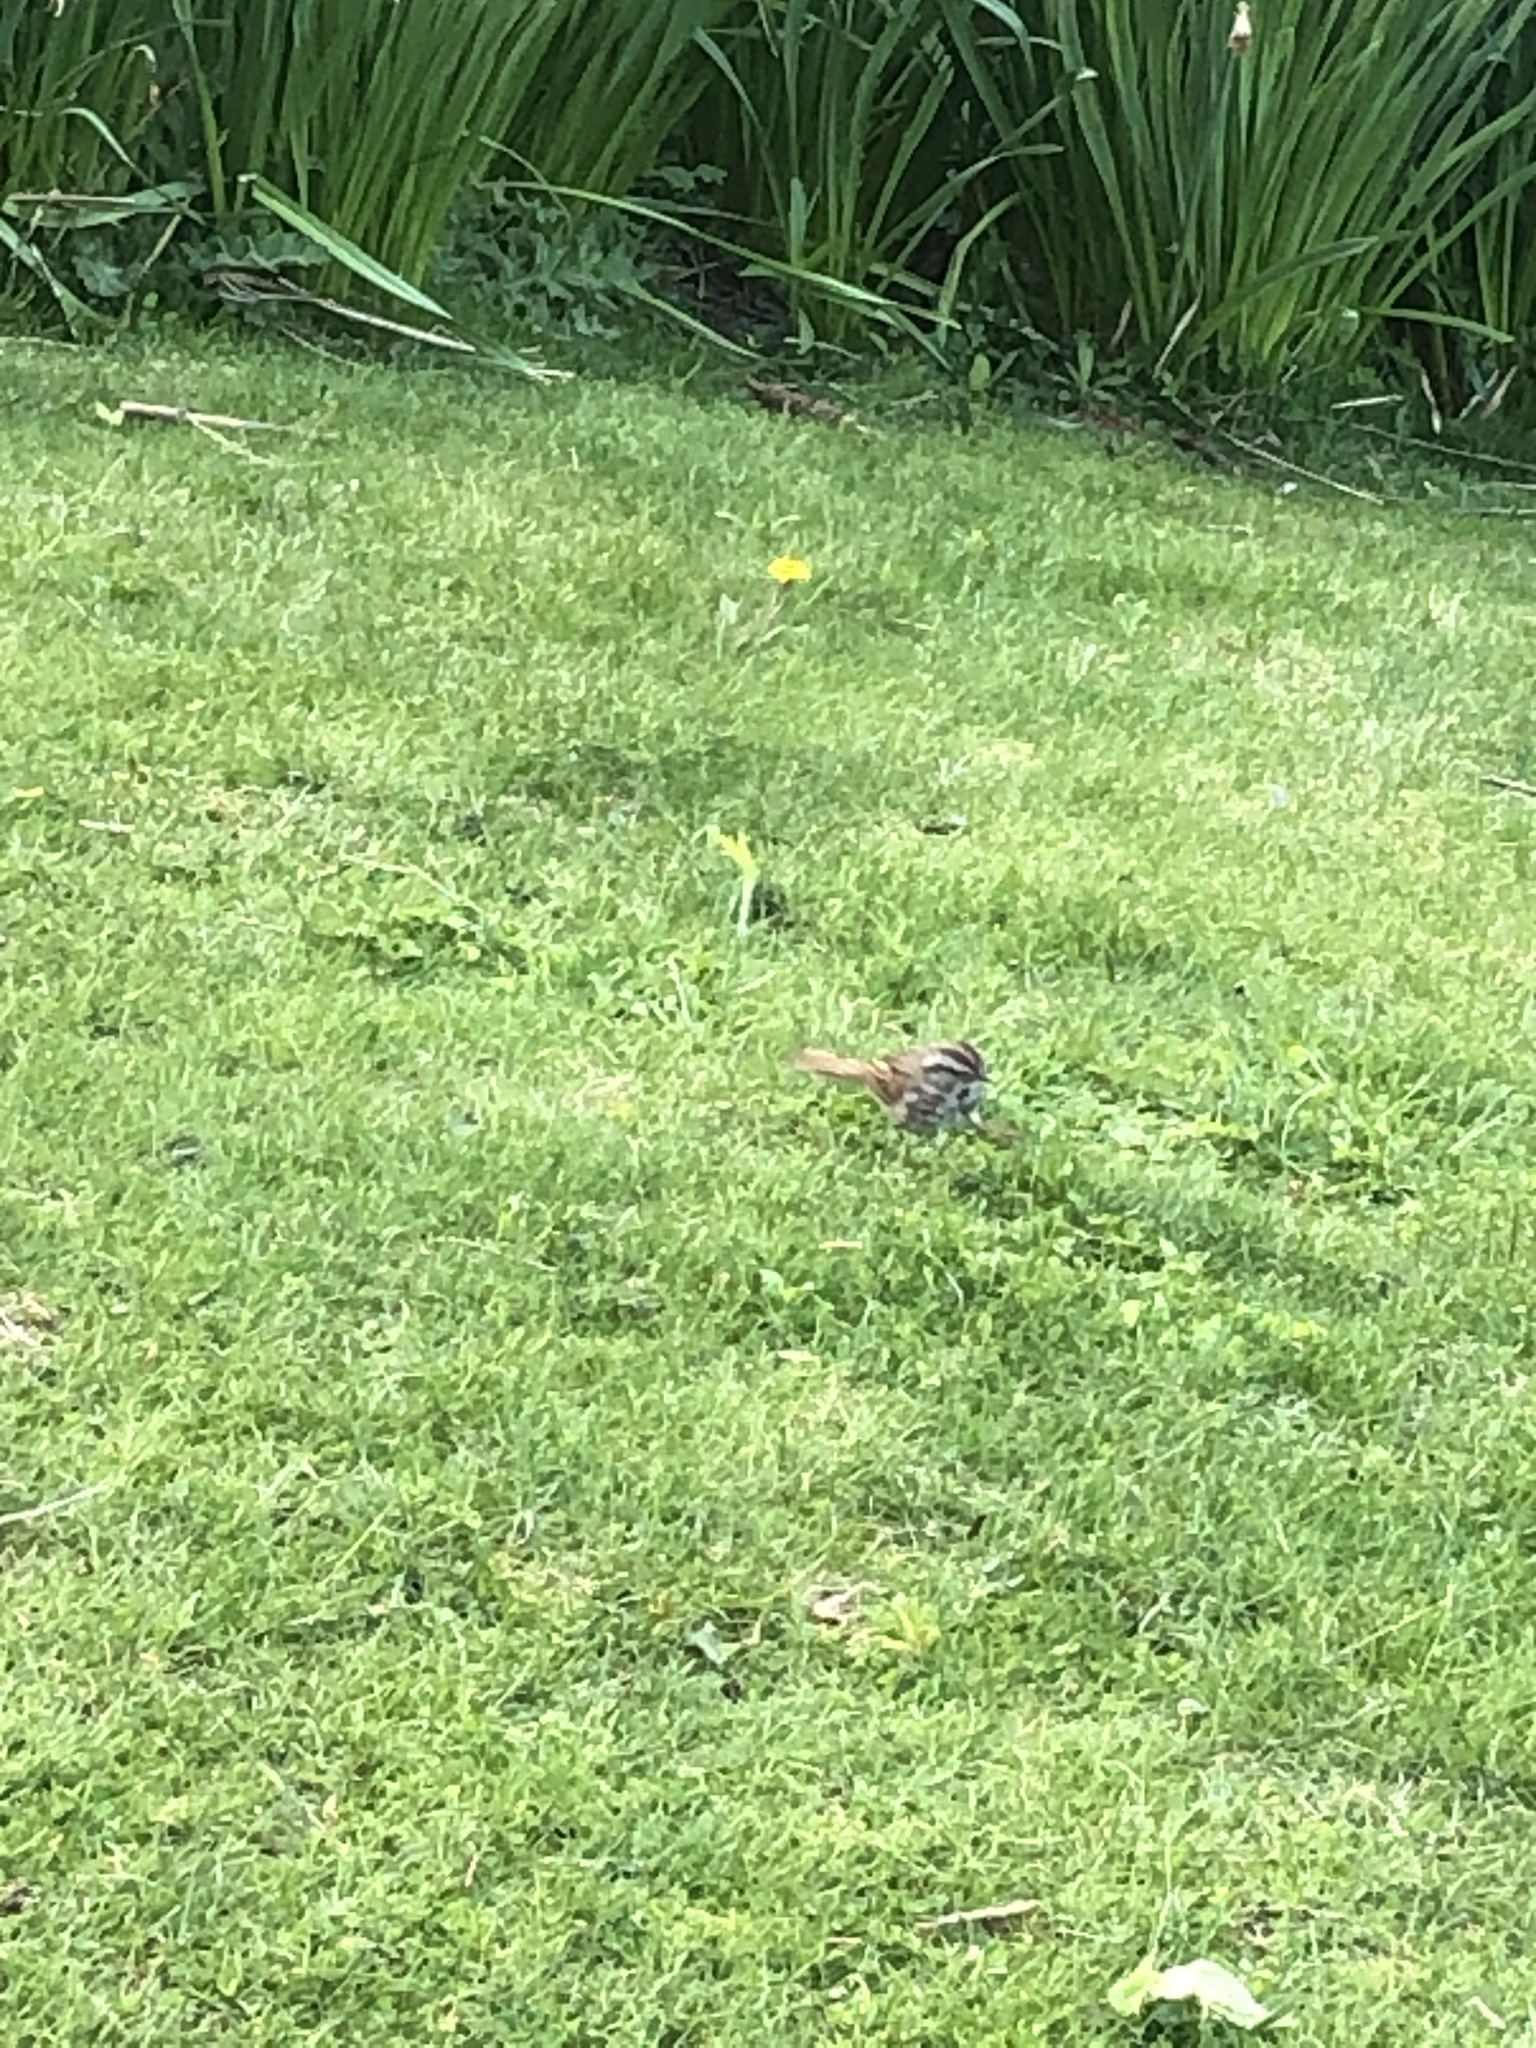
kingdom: Animalia
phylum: Chordata
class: Aves
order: Passeriformes
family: Passerellidae
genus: Melospiza
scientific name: Melospiza melodia
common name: Song sparrow
